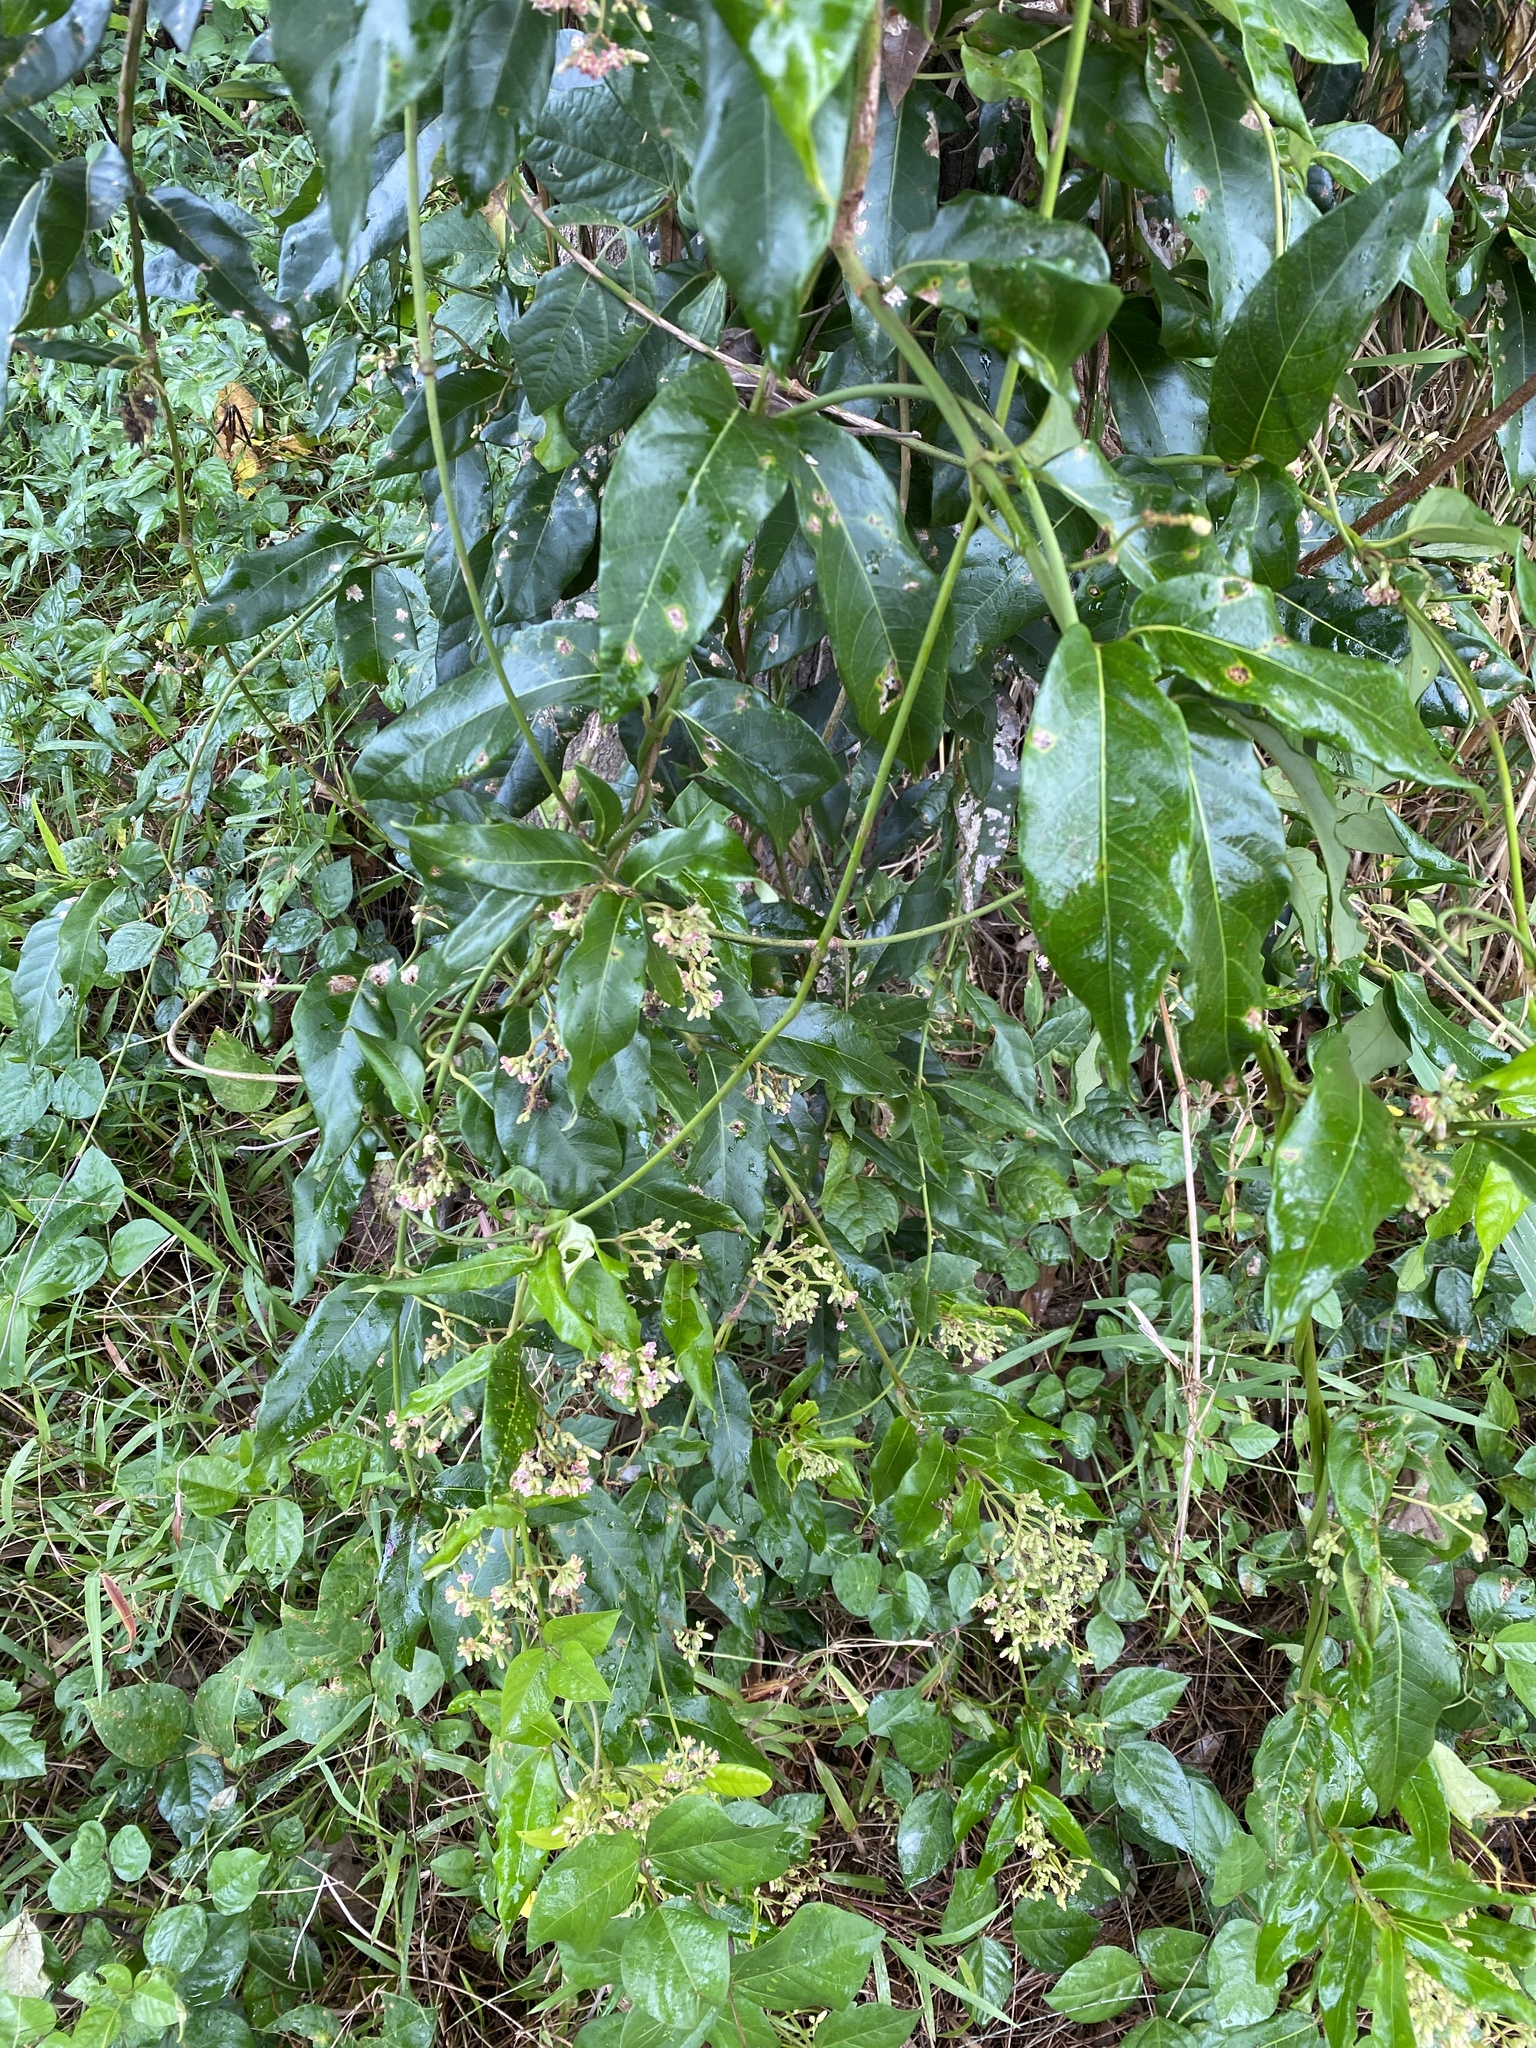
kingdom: Plantae
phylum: Tracheophyta
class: Magnoliopsida
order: Gentianales
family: Apocynaceae
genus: Parsonsia
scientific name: Parsonsia straminea
